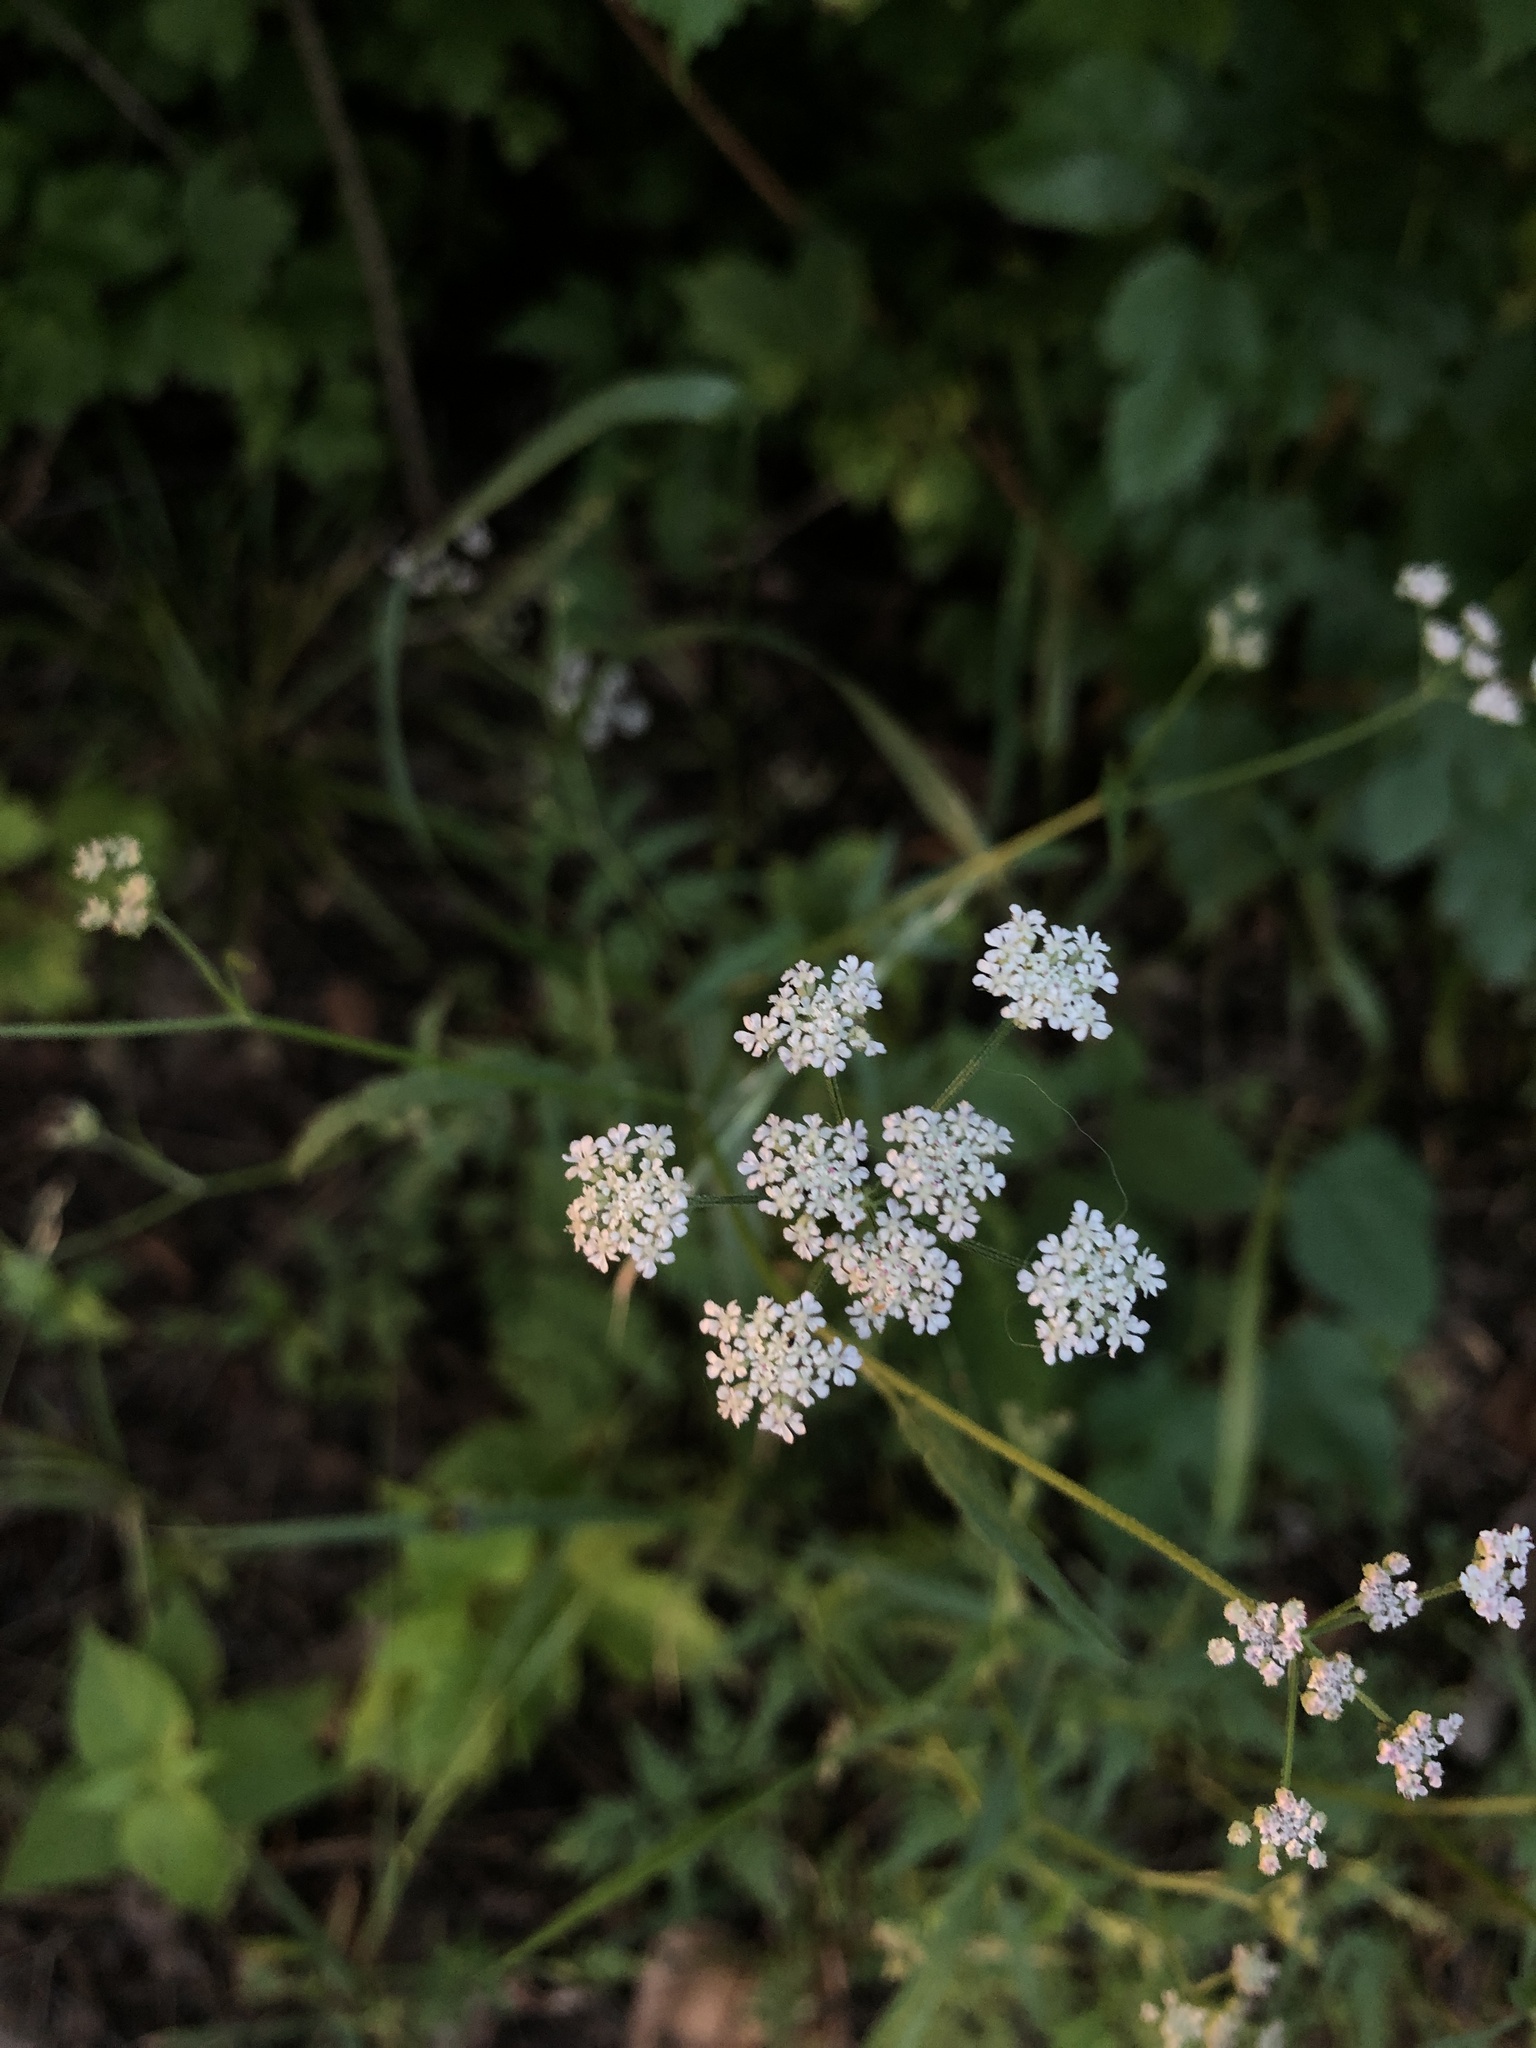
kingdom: Plantae
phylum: Tracheophyta
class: Magnoliopsida
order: Apiales
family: Apiaceae
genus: Torilis
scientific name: Torilis japonica
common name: Upright hedge-parsley
